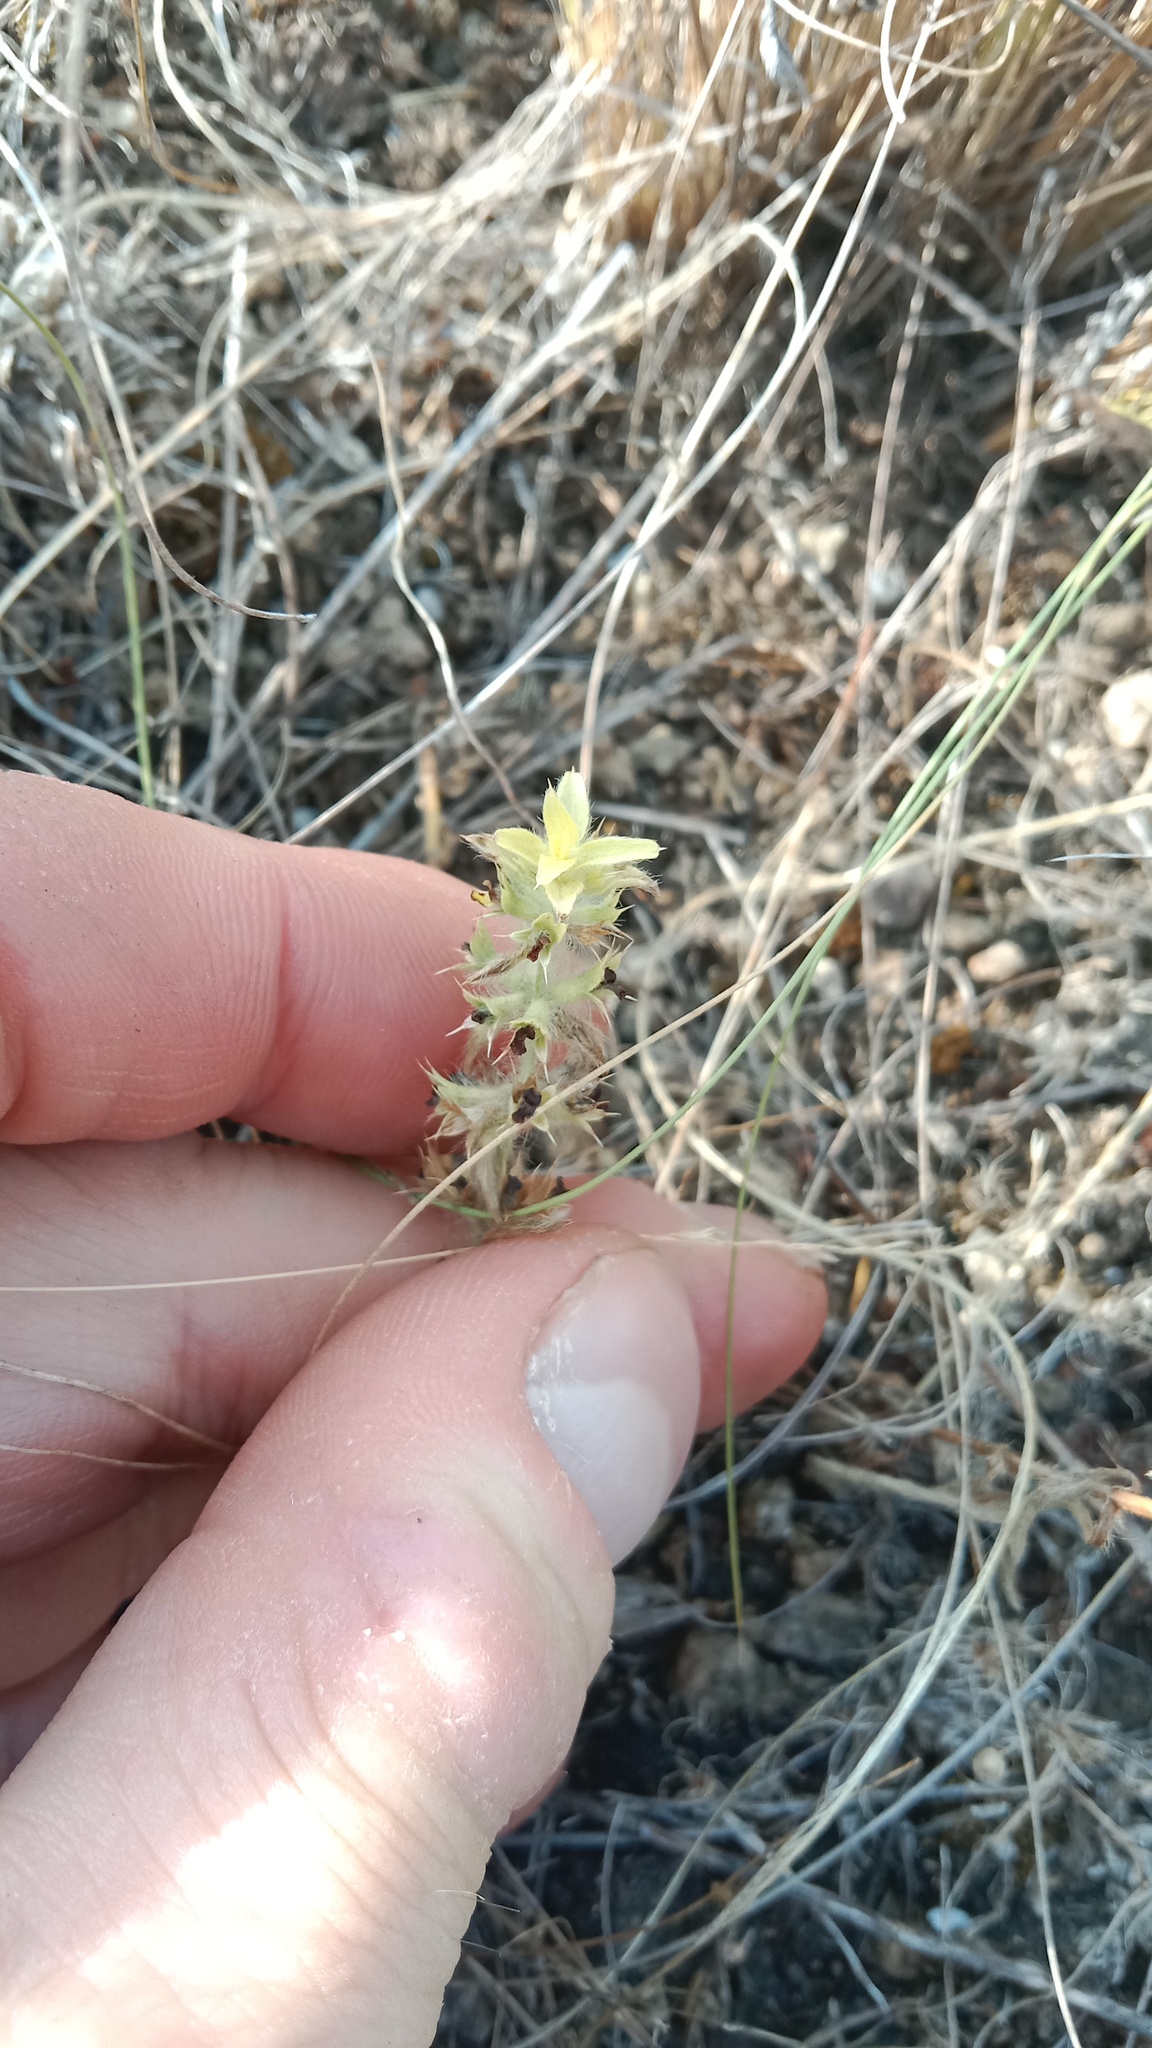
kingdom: Plantae
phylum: Tracheophyta
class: Magnoliopsida
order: Lamiales
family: Lamiaceae
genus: Sideritis
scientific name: Sideritis montana
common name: Mountain ironwort
